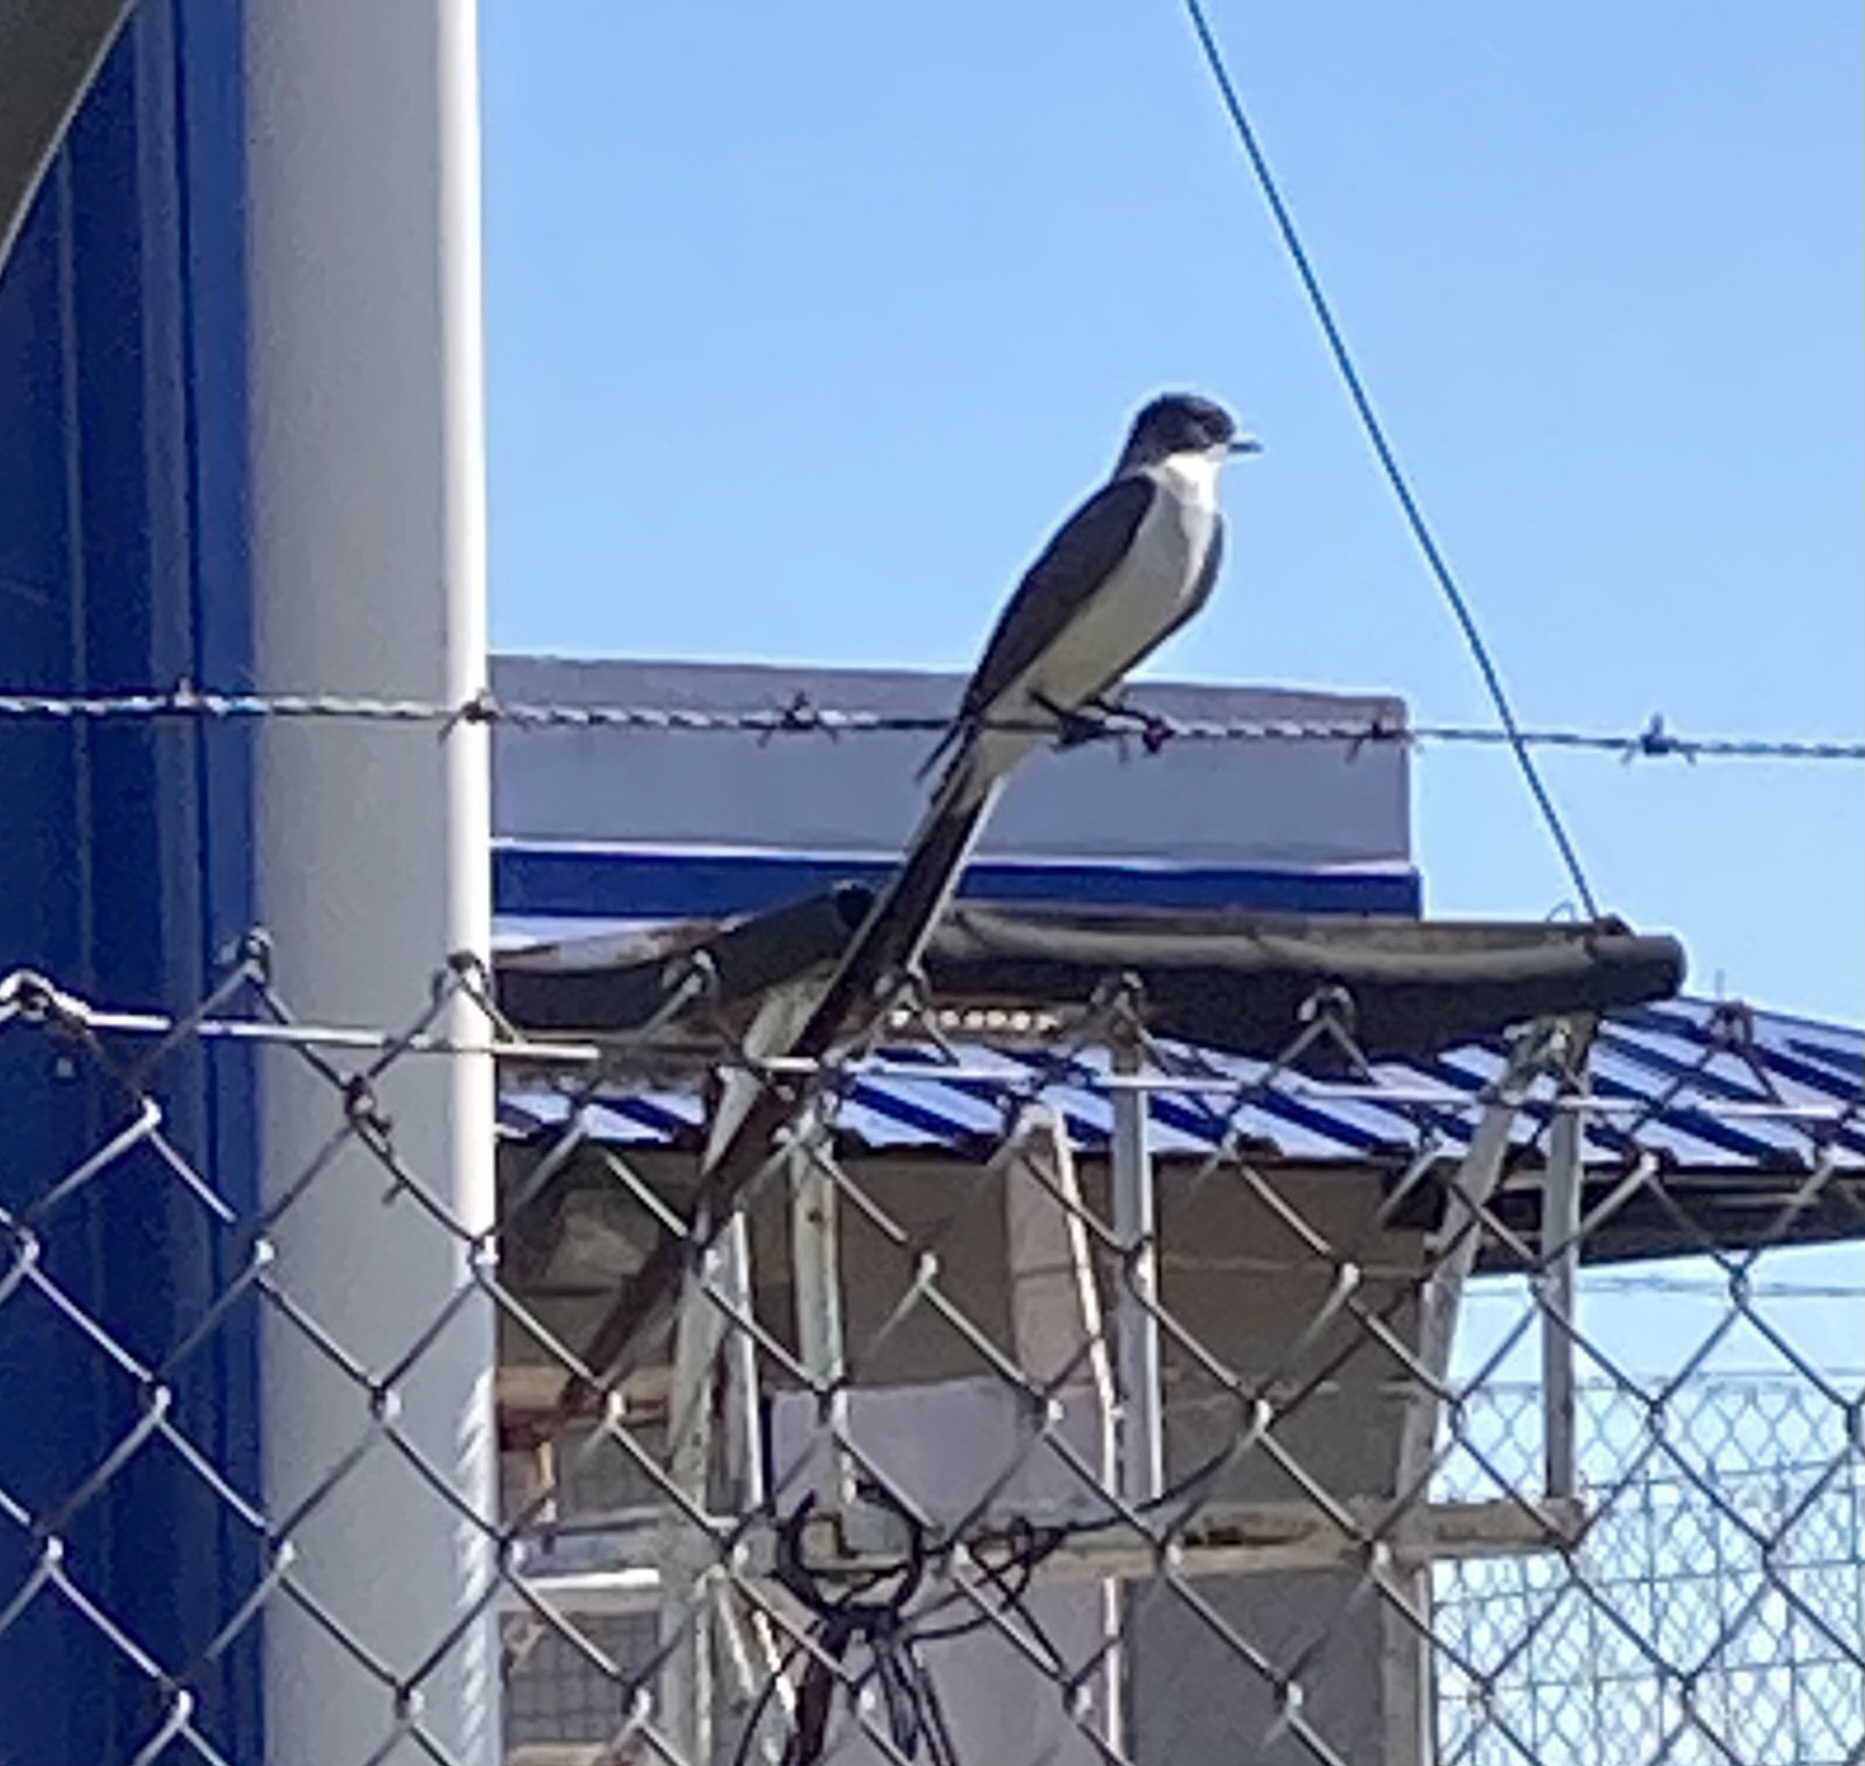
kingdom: Animalia
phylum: Chordata
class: Aves
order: Passeriformes
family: Tyrannidae
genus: Tyrannus
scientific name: Tyrannus savana
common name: Fork-tailed flycatcher
